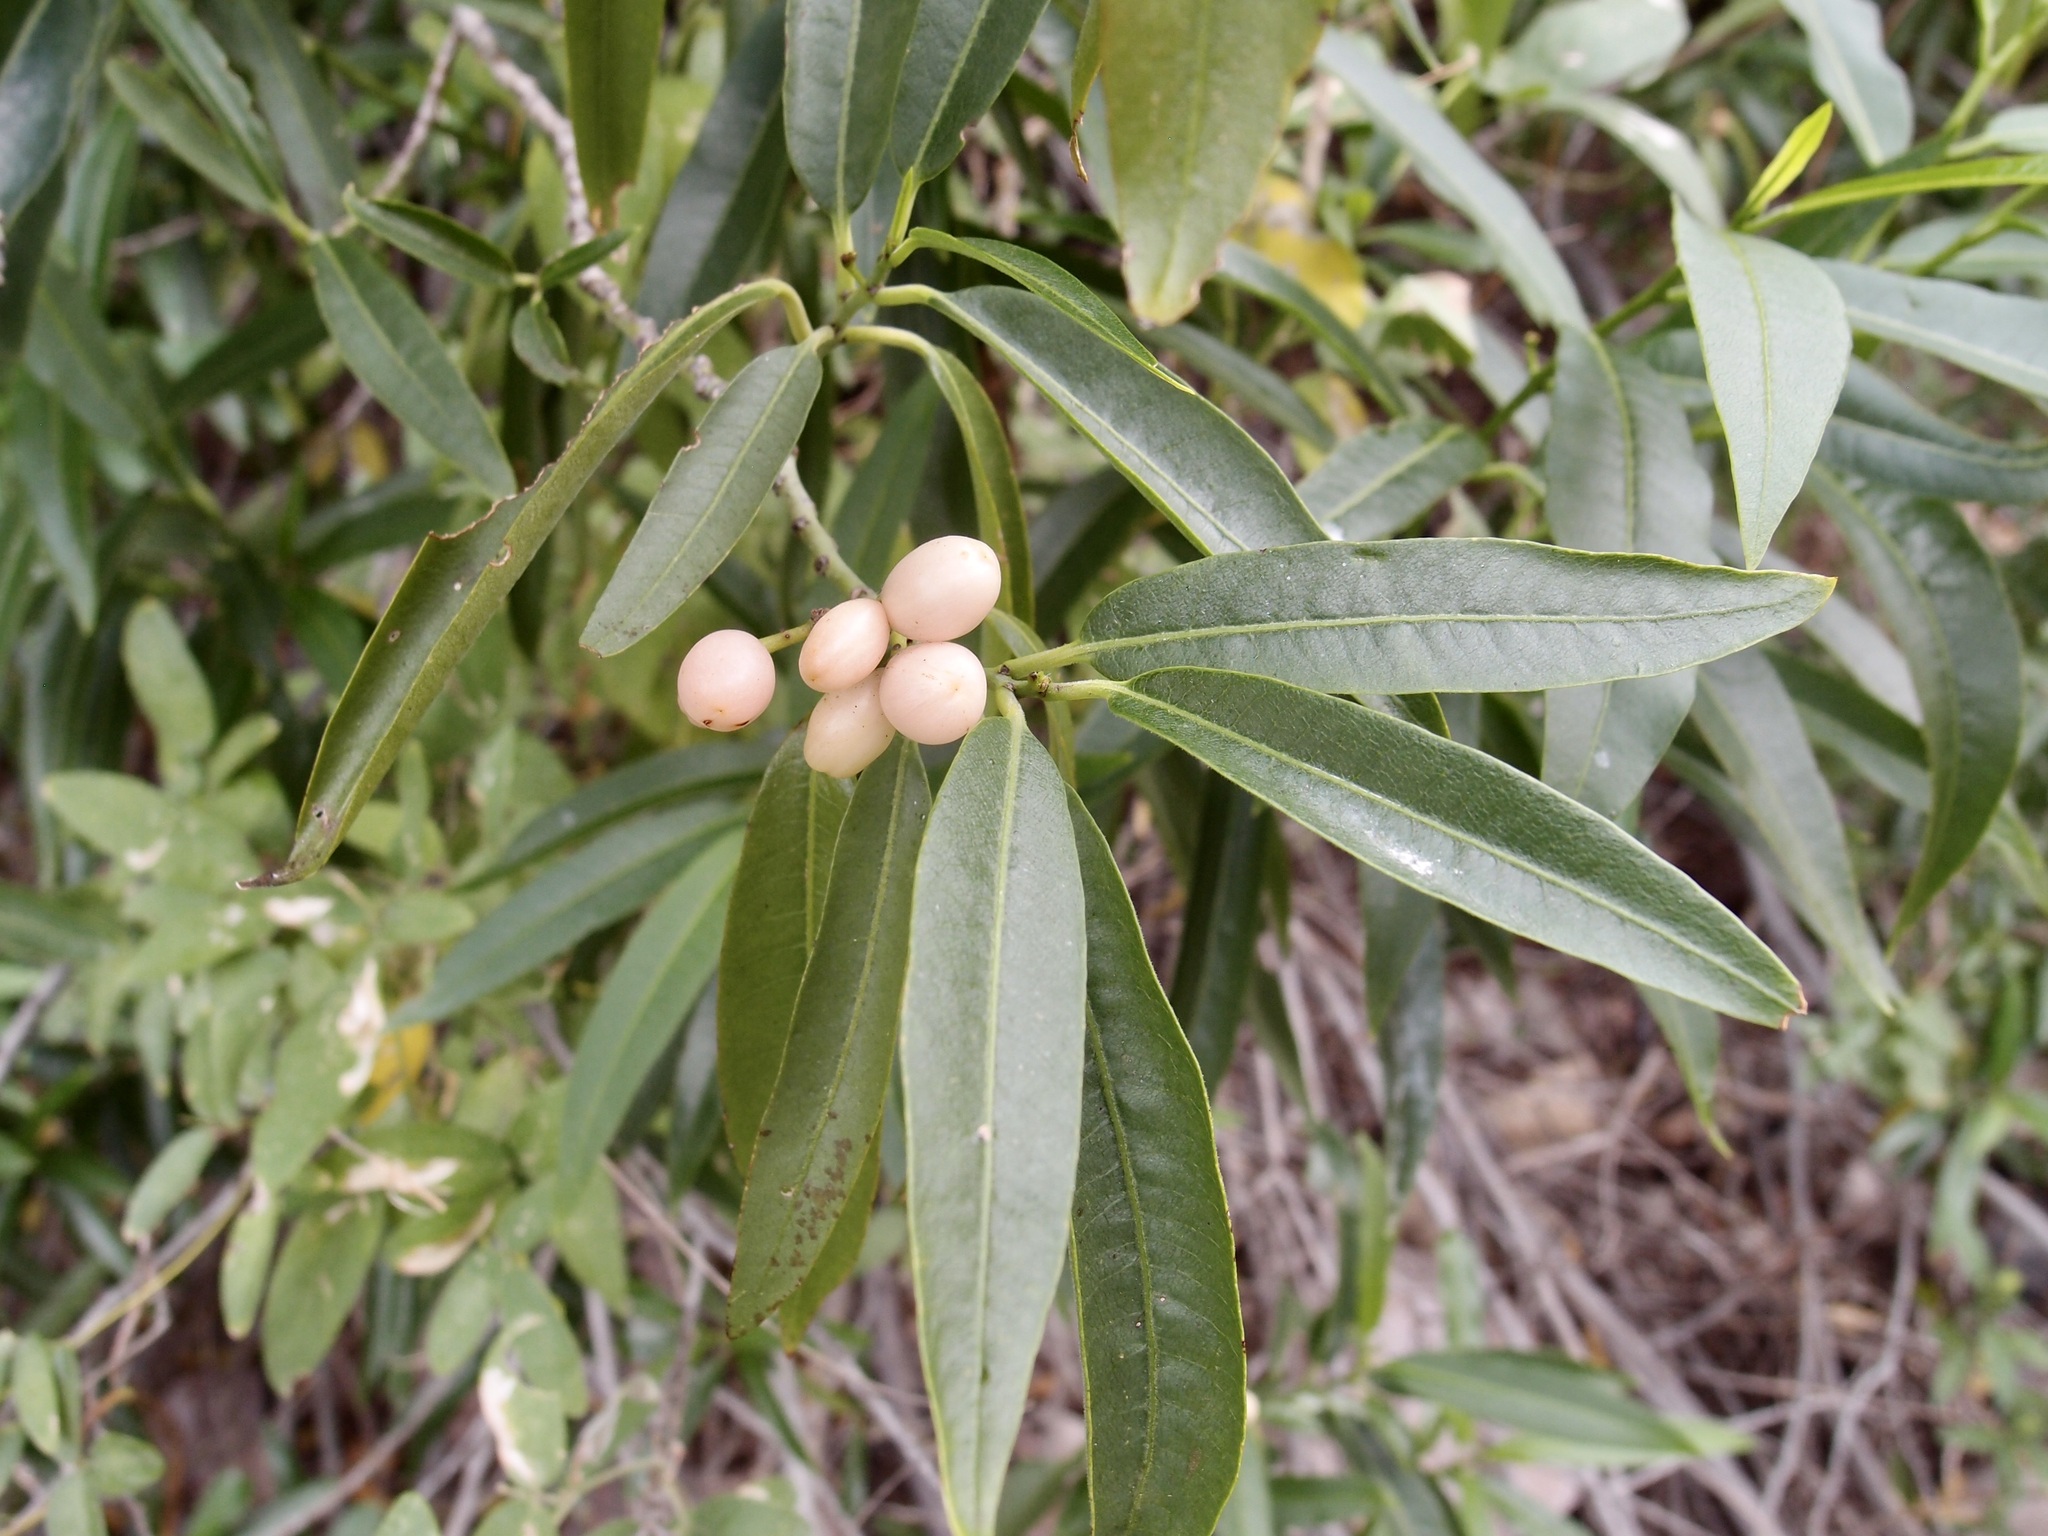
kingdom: Plantae
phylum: Tracheophyta
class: Magnoliopsida
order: Gentianales
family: Apocynaceae
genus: Vallesia
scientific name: Vallesia laciniata
